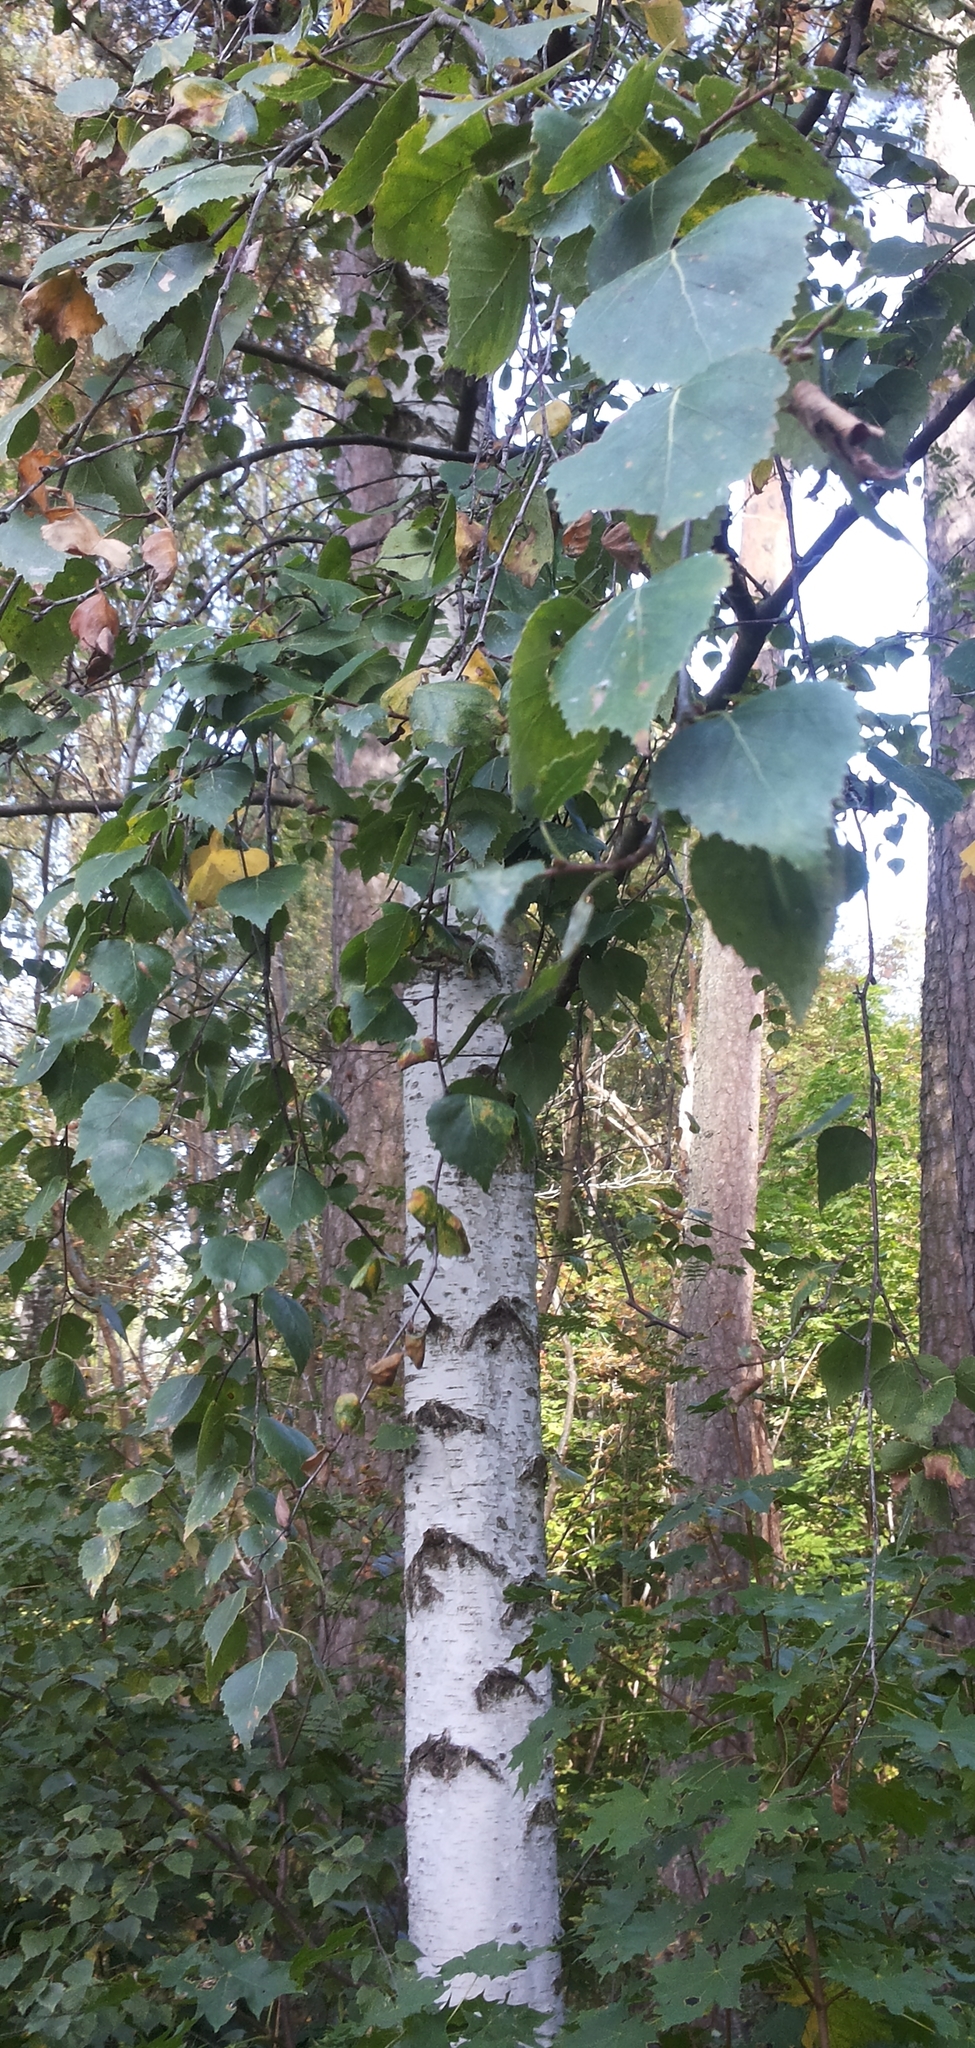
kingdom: Plantae
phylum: Tracheophyta
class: Magnoliopsida
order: Fagales
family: Betulaceae
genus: Betula
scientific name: Betula pendula
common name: Silver birch
